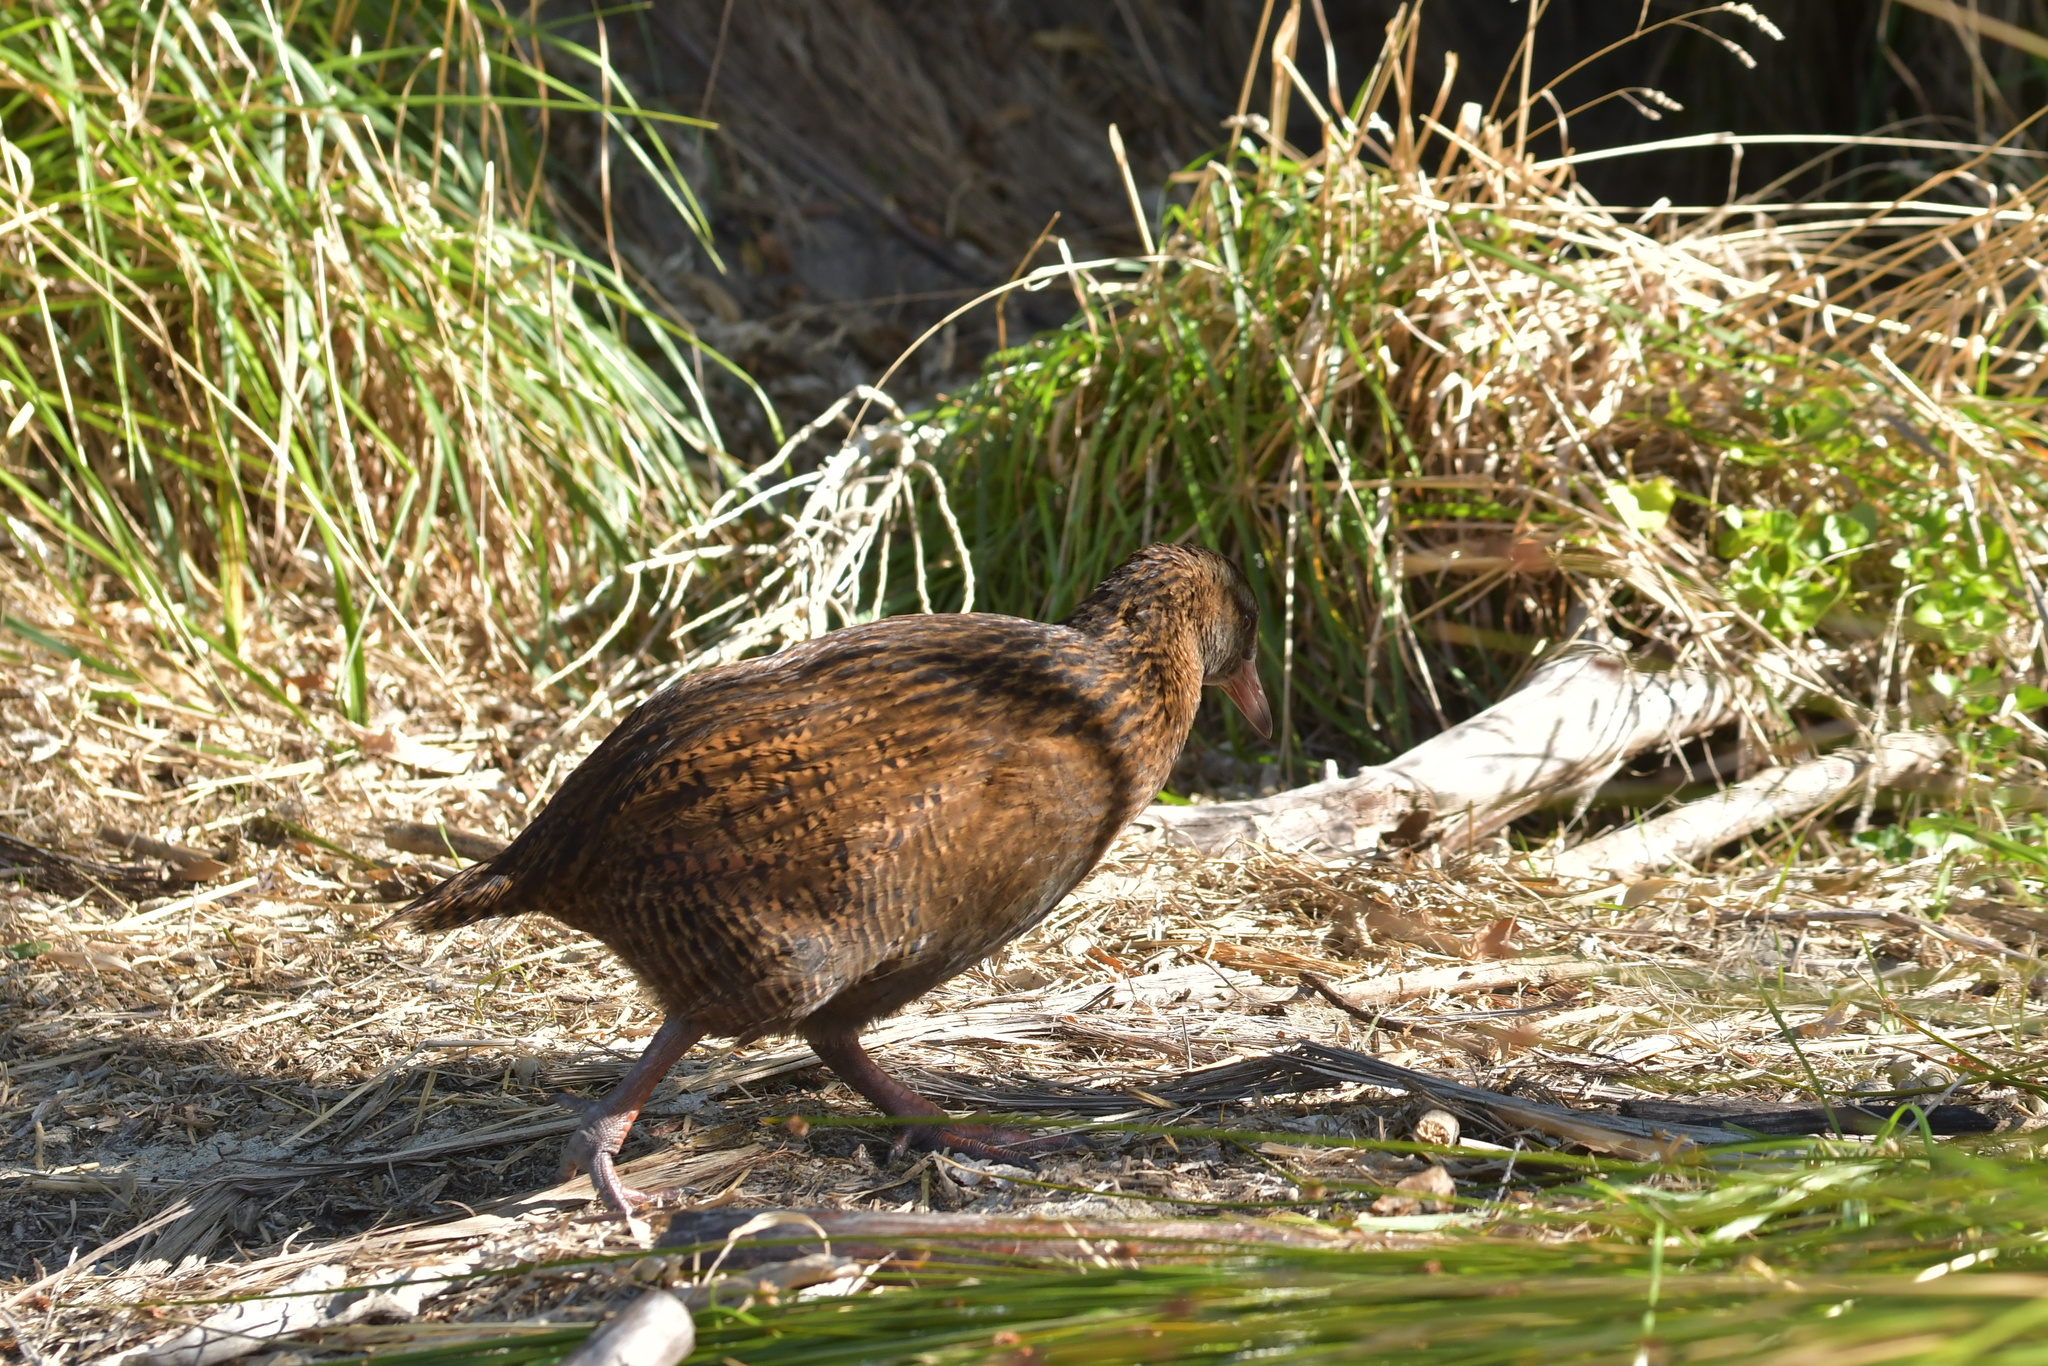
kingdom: Animalia
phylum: Chordata
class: Aves
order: Gruiformes
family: Rallidae
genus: Gallirallus
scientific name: Gallirallus australis
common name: Weka
